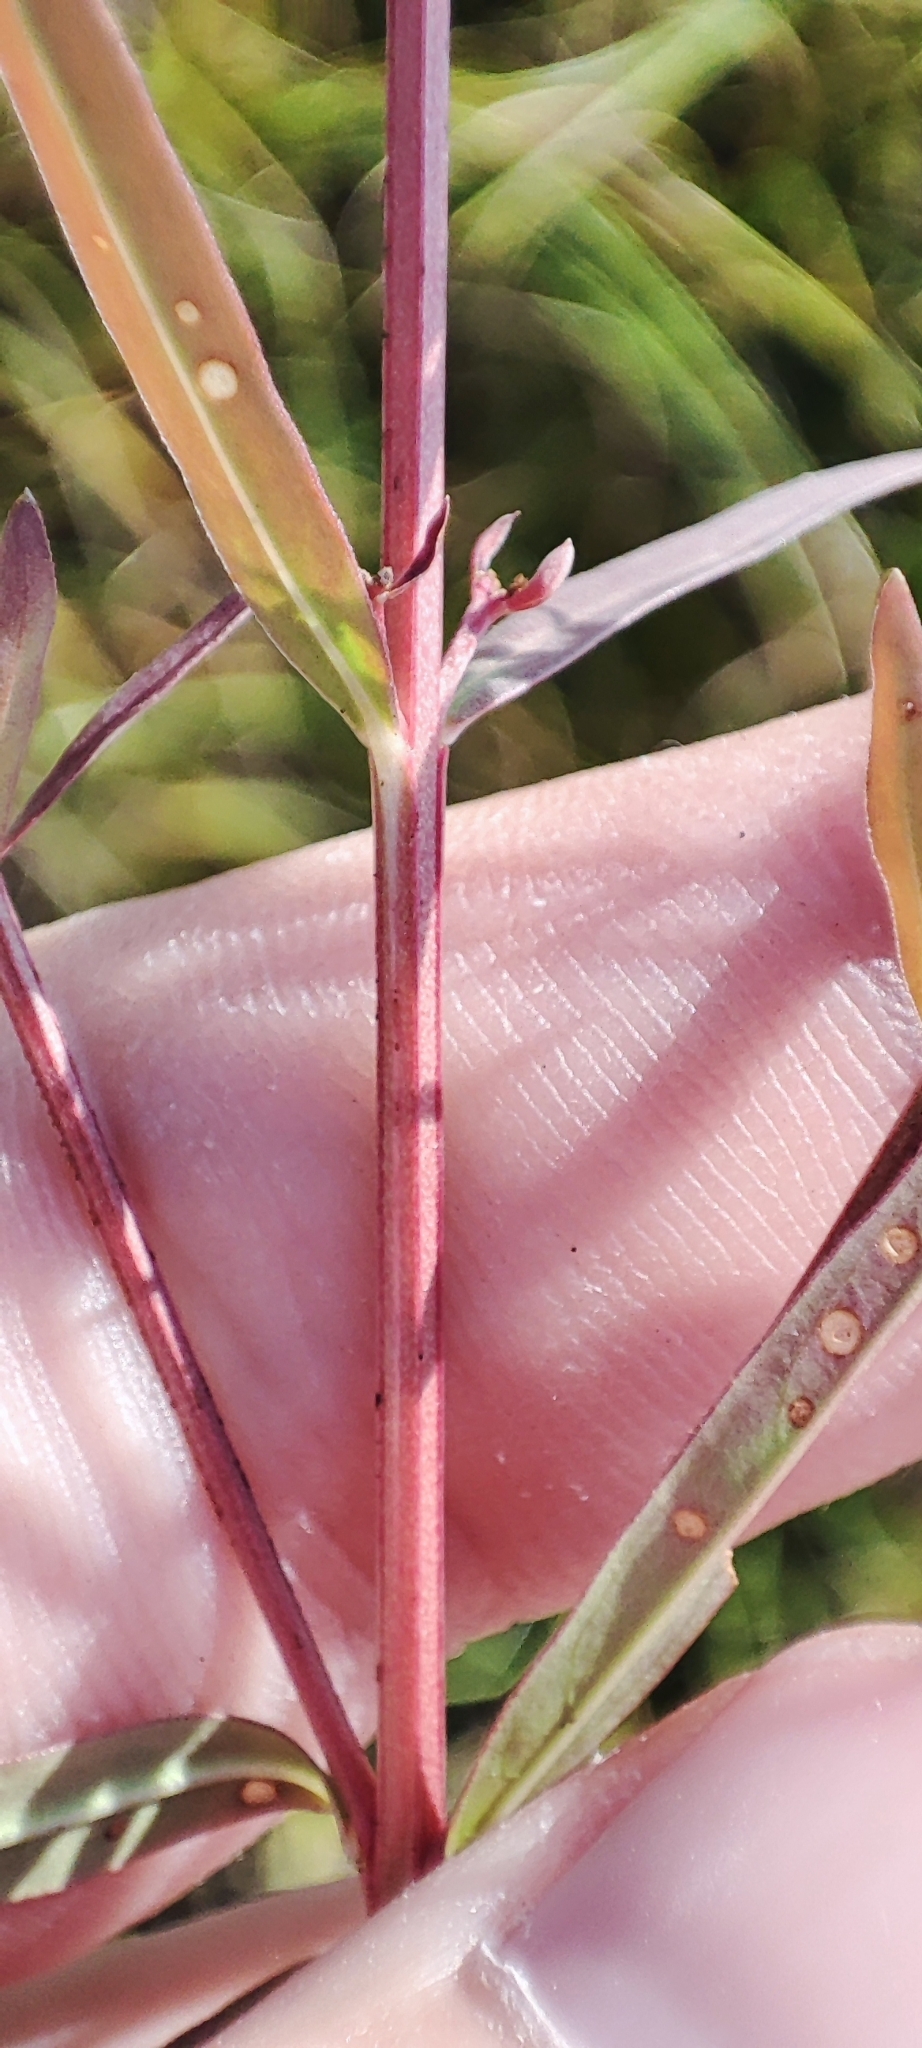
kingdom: Plantae
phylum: Tracheophyta
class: Magnoliopsida
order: Myrtales
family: Lythraceae
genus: Lythrum
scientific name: Lythrum virgatum
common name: European wand loosestrife
